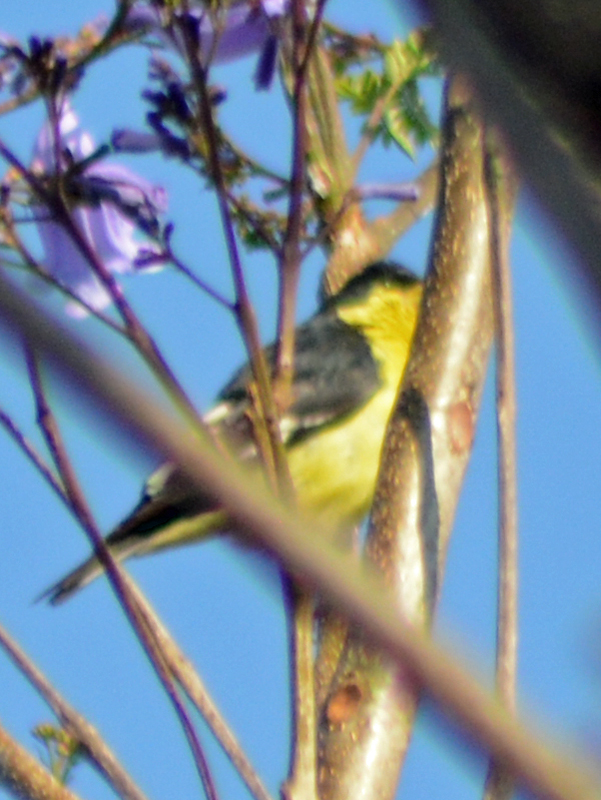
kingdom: Animalia
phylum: Chordata
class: Aves
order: Passeriformes
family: Fringillidae
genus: Spinus
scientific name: Spinus psaltria
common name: Lesser goldfinch
